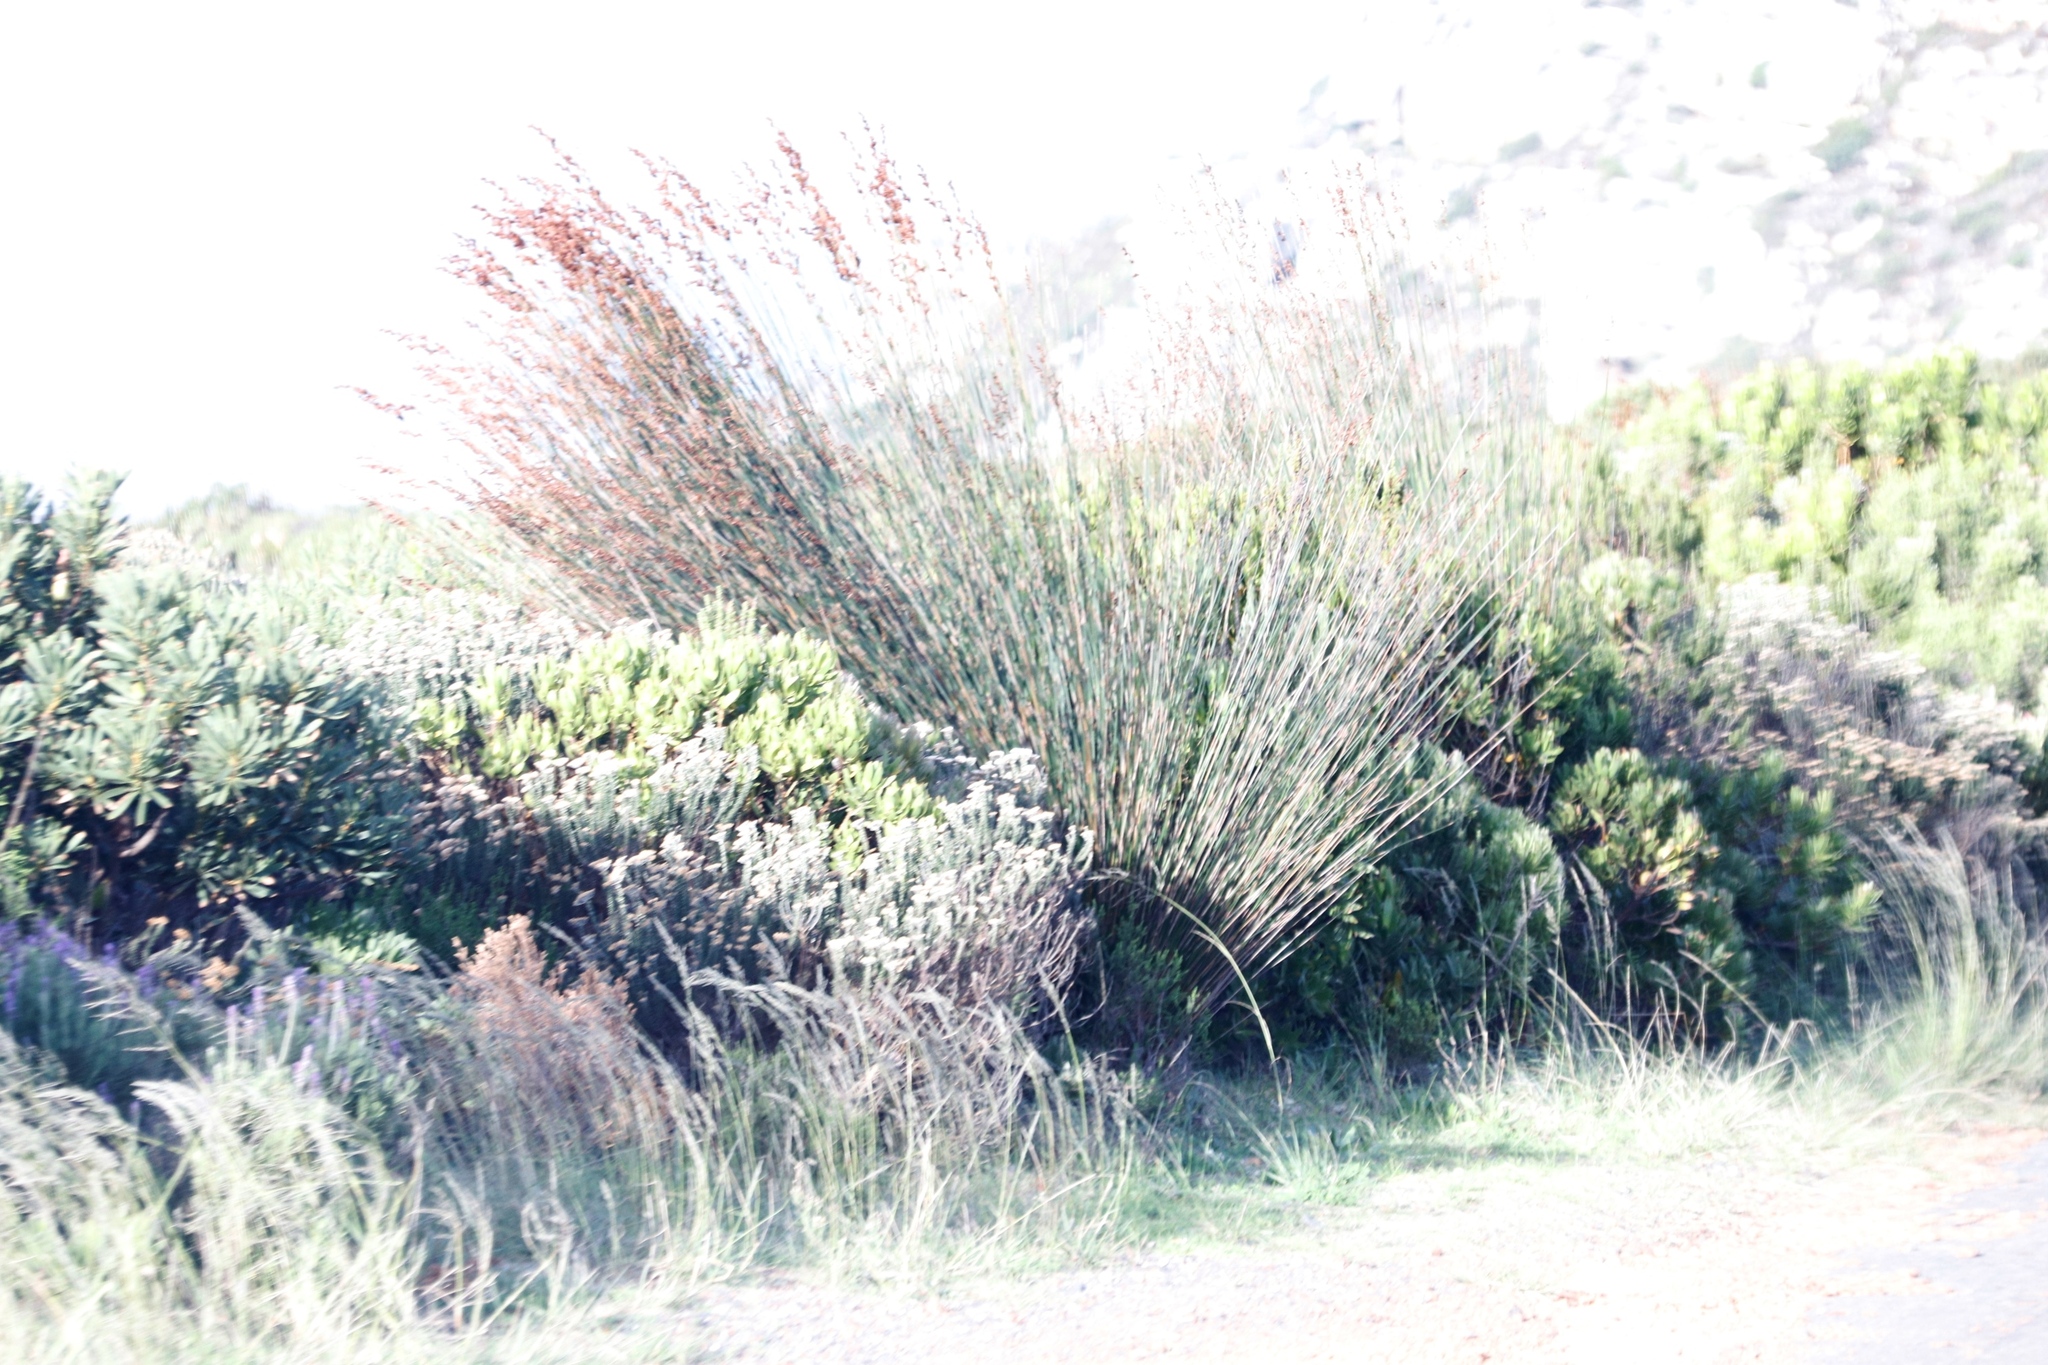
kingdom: Plantae
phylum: Tracheophyta
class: Liliopsida
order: Poales
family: Restionaceae
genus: Thamnochortus
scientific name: Thamnochortus insignis
